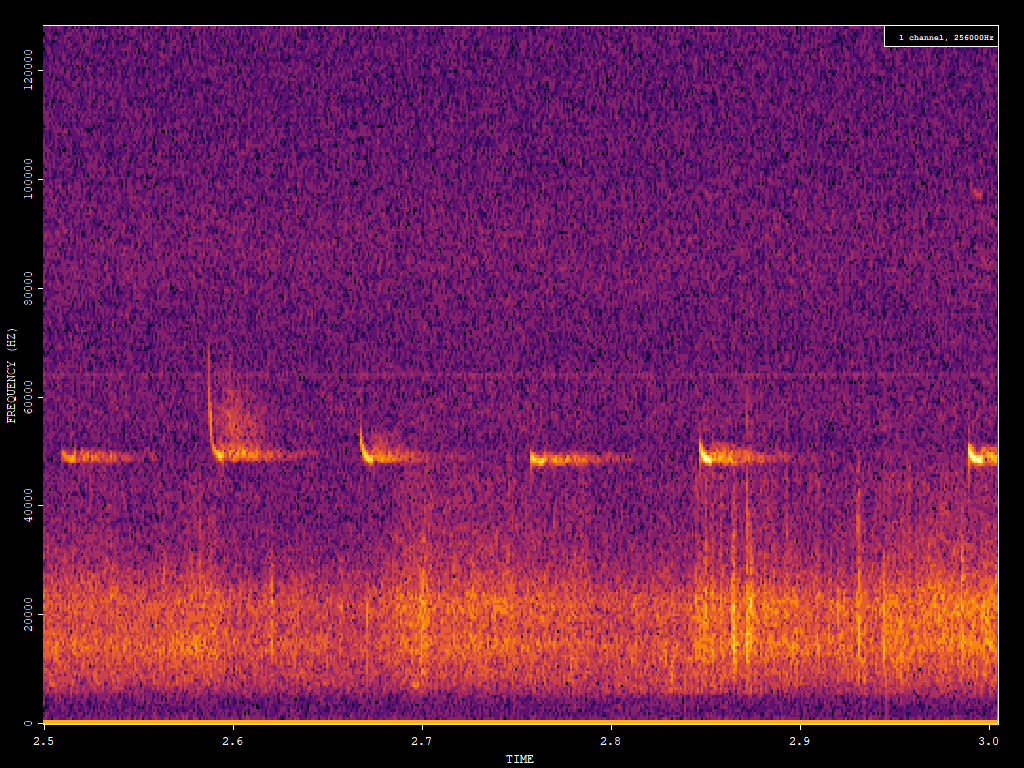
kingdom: Animalia
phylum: Chordata
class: Mammalia
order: Chiroptera
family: Vespertilionidae
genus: Pipistrellus
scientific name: Pipistrellus pipistrellus
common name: Common pipistrelle
